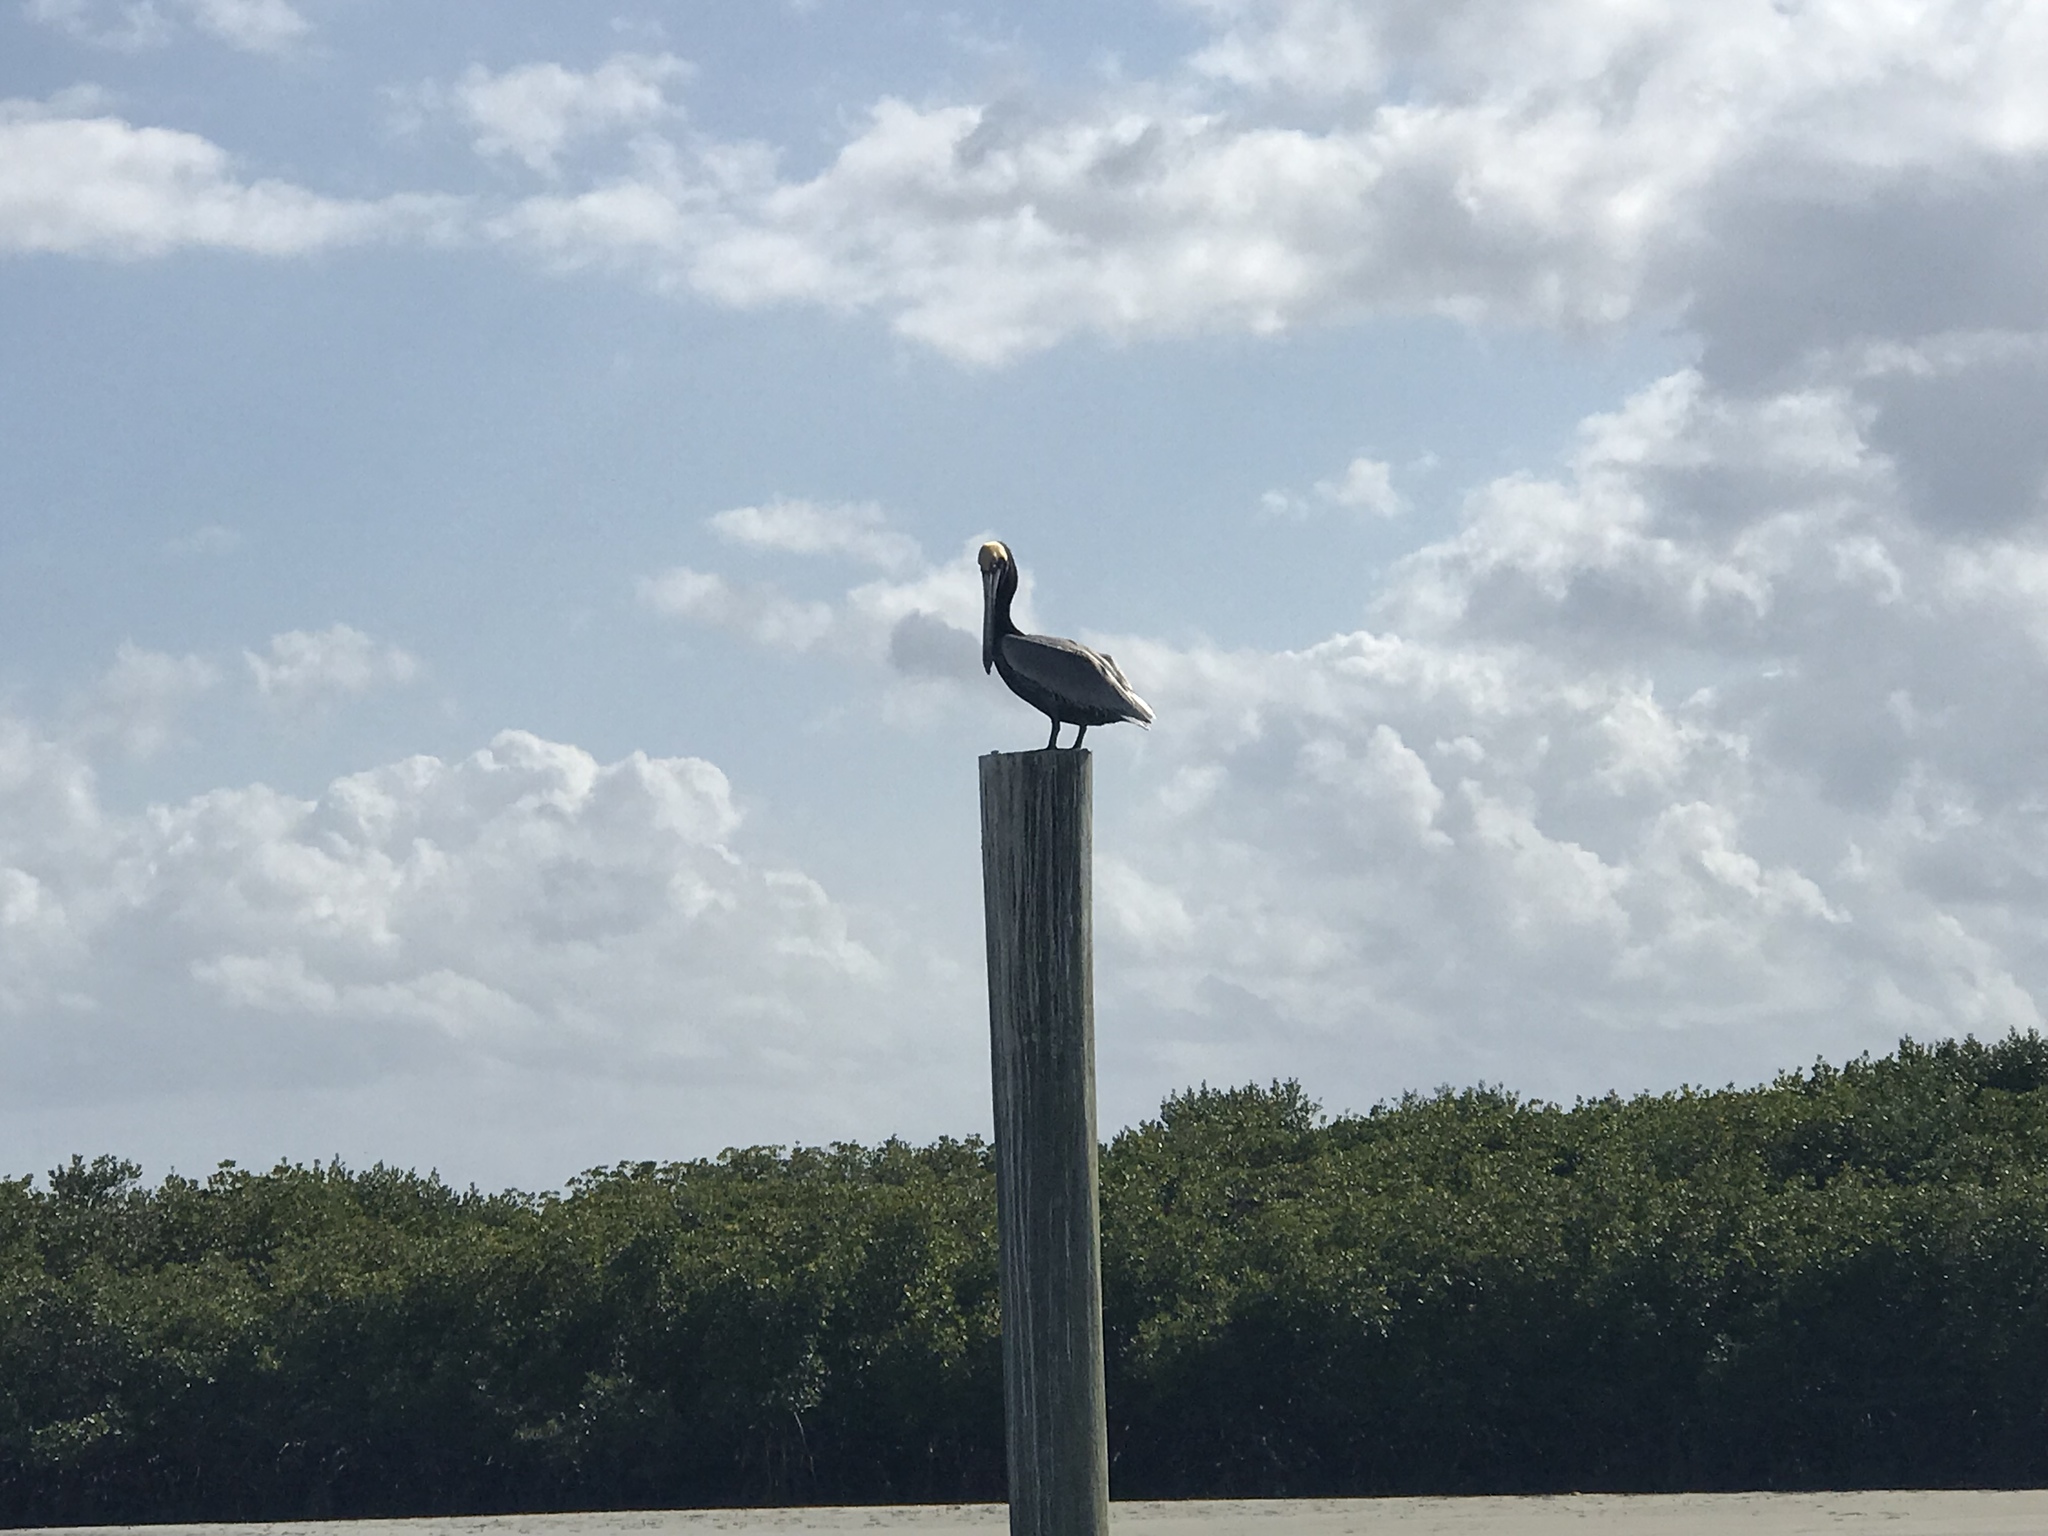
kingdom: Animalia
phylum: Chordata
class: Aves
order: Pelecaniformes
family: Pelecanidae
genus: Pelecanus
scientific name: Pelecanus occidentalis
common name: Brown pelican
